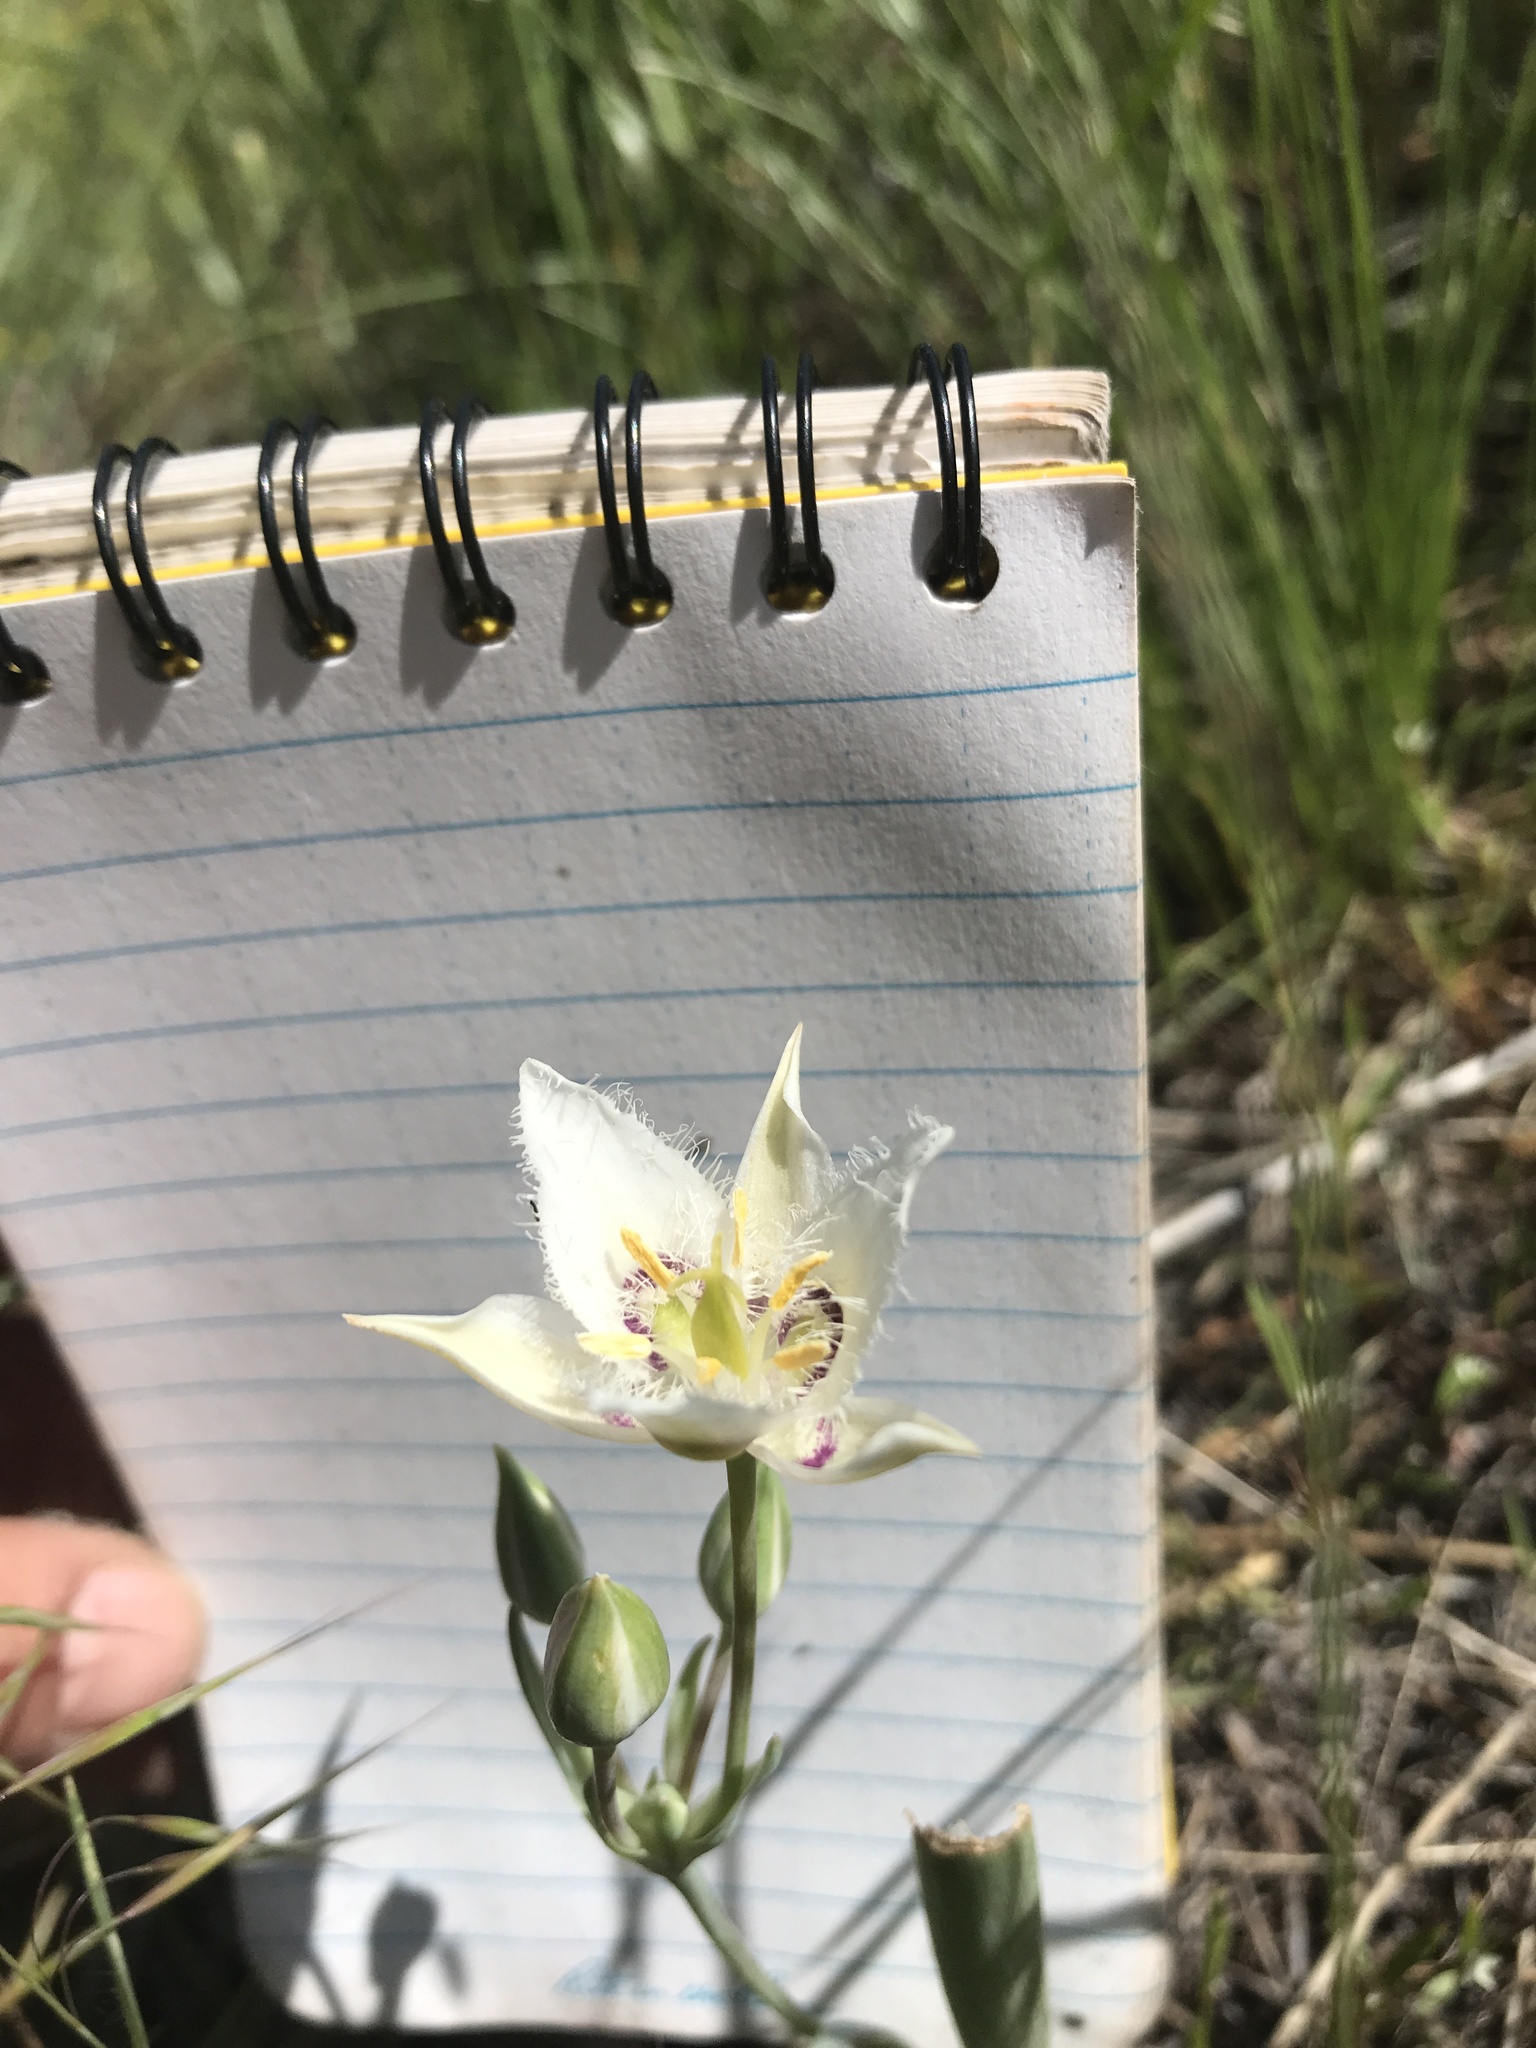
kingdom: Plantae
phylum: Tracheophyta
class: Liliopsida
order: Liliales
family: Liliaceae
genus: Calochortus
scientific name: Calochortus lyallii
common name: Lyall's mariposa lily
